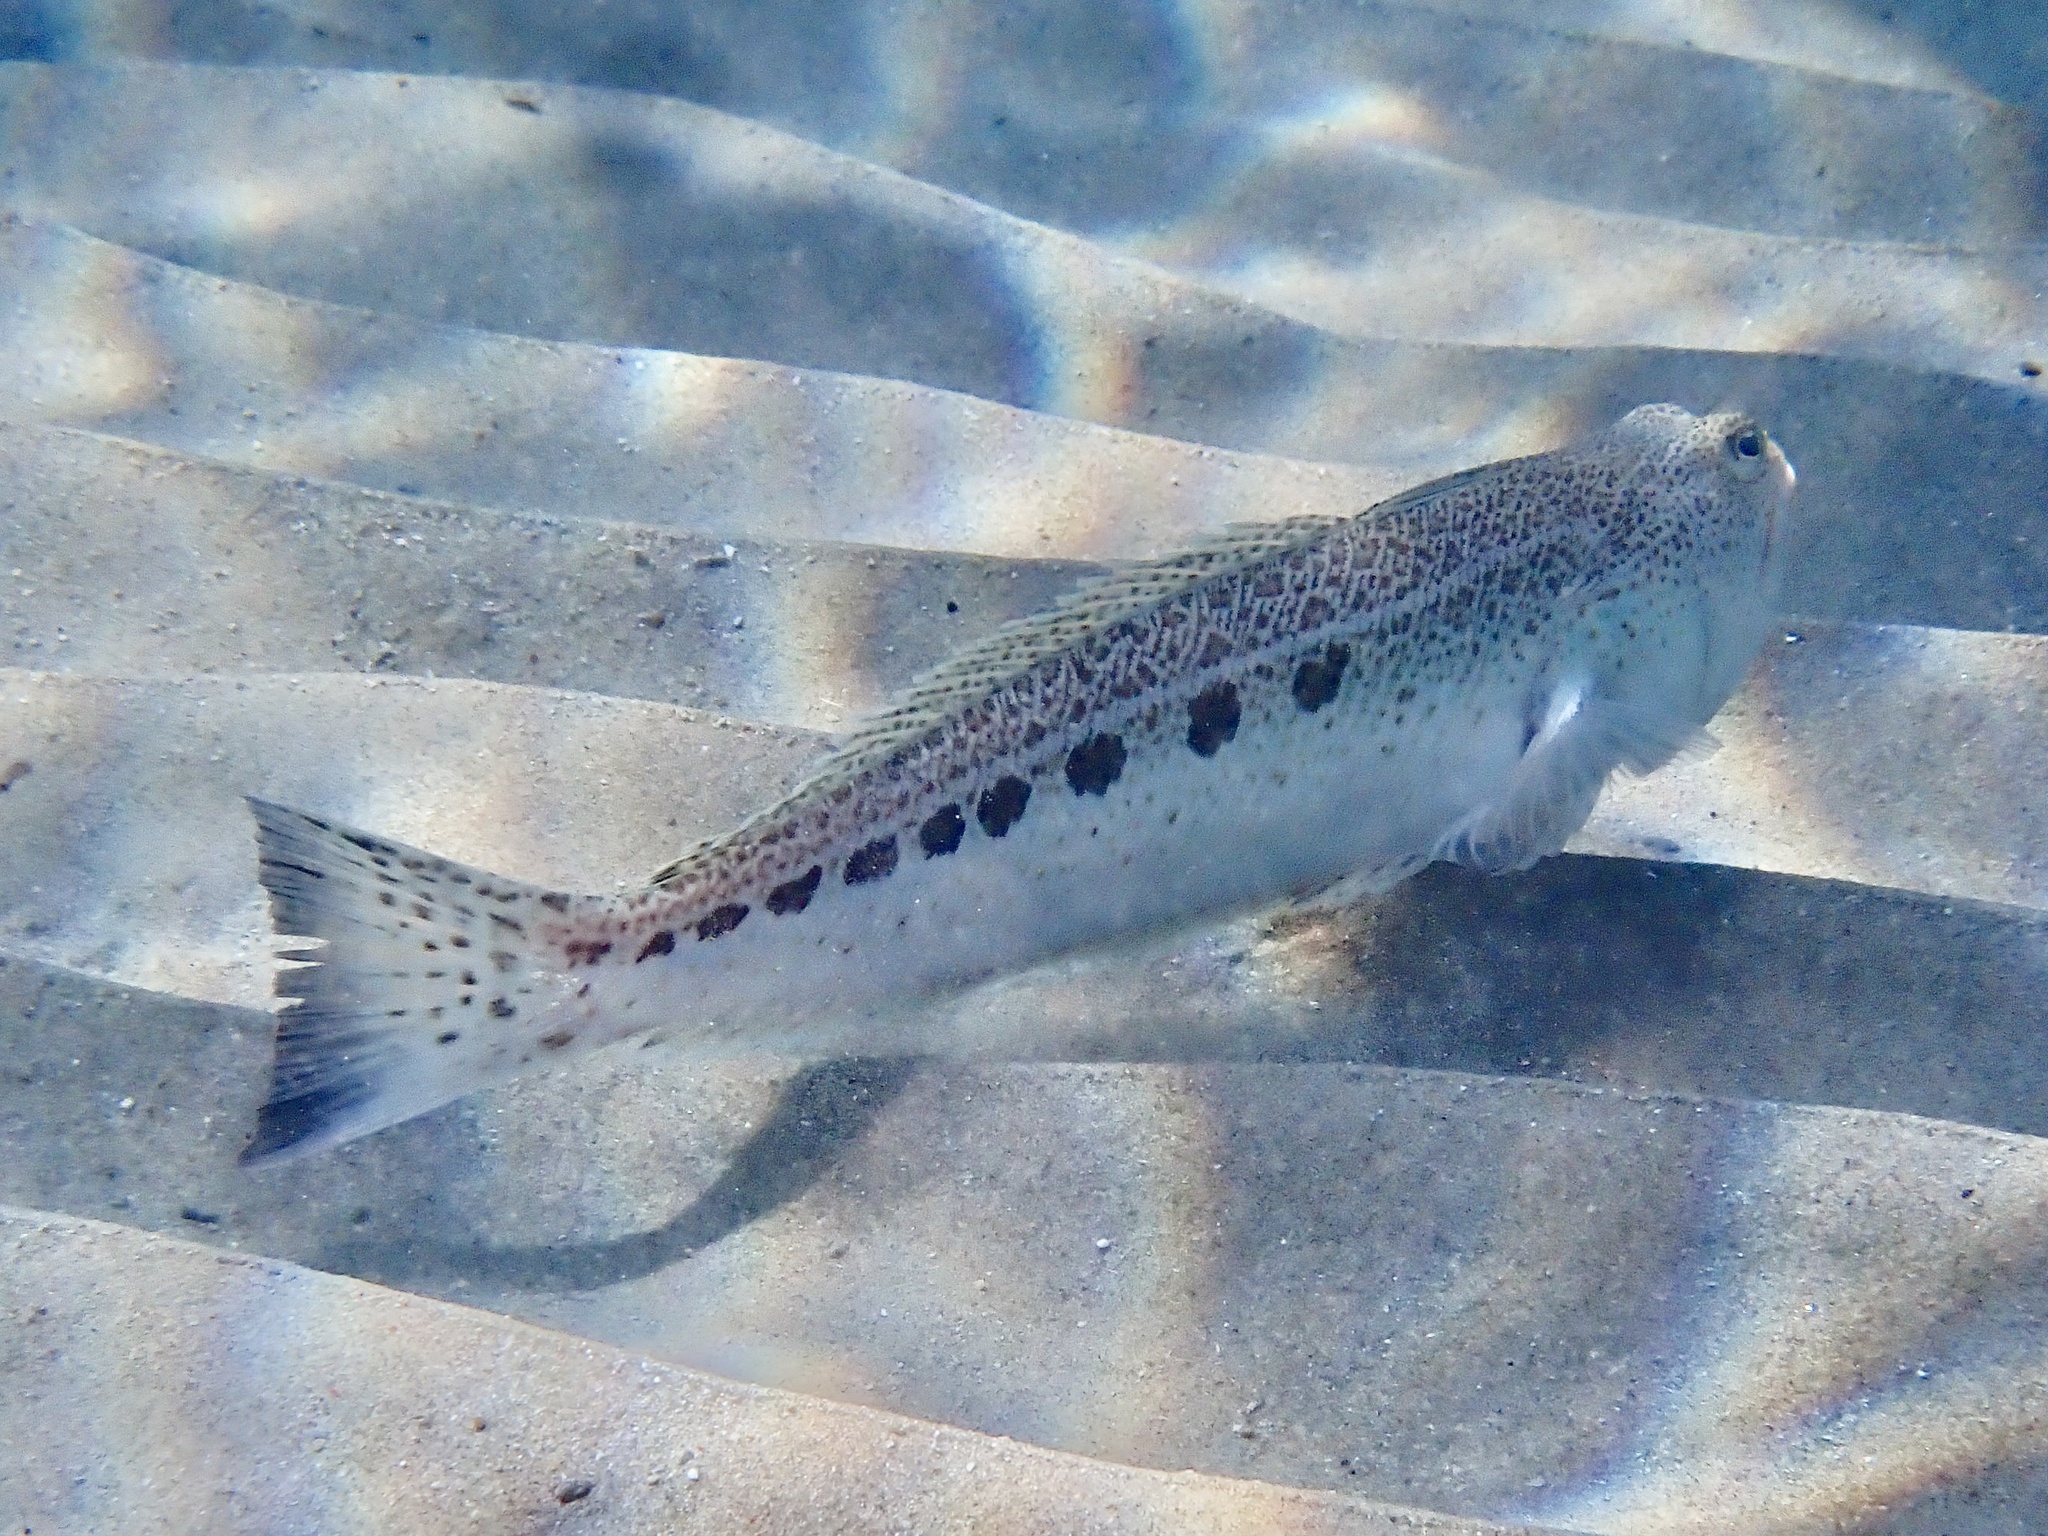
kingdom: Animalia
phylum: Chordata
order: Perciformes
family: Trachinidae
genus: Trachinus
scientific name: Trachinus araneus
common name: Spotted weever
